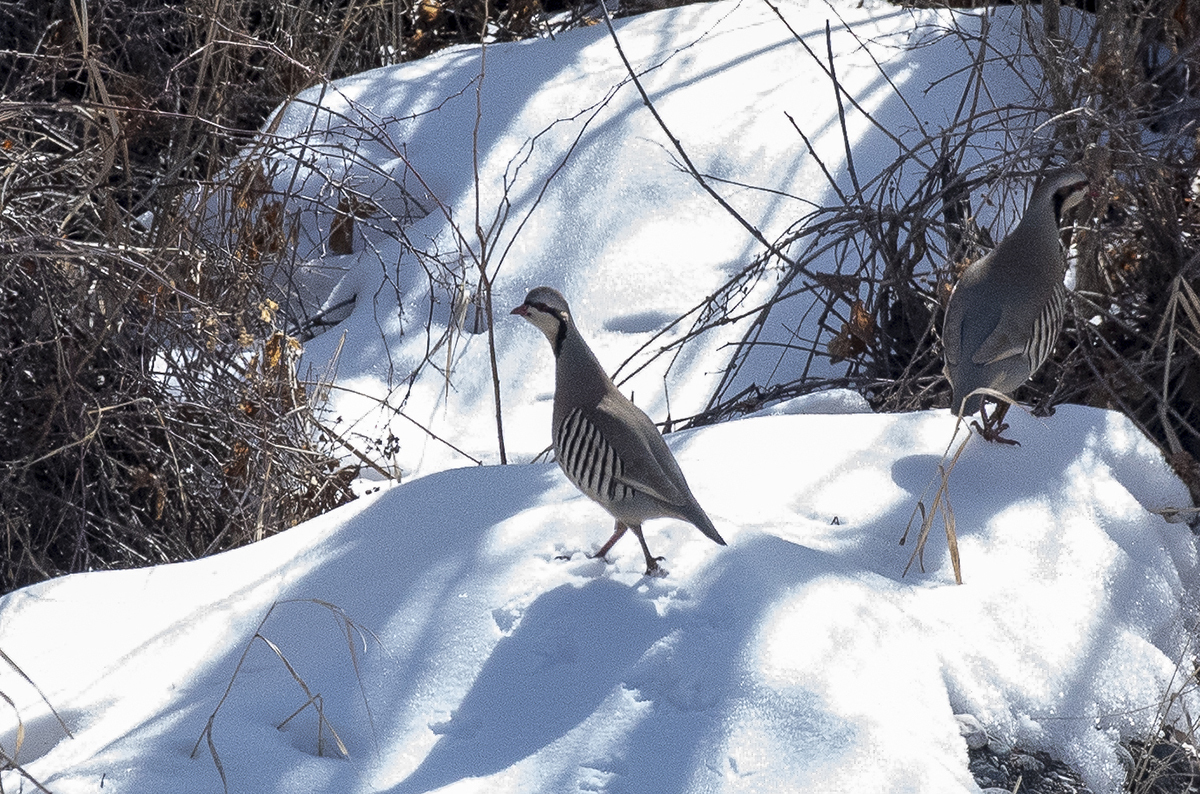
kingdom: Animalia
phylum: Chordata
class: Aves
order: Galliformes
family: Phasianidae
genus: Alectoris
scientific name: Alectoris chukar
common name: Chukar
